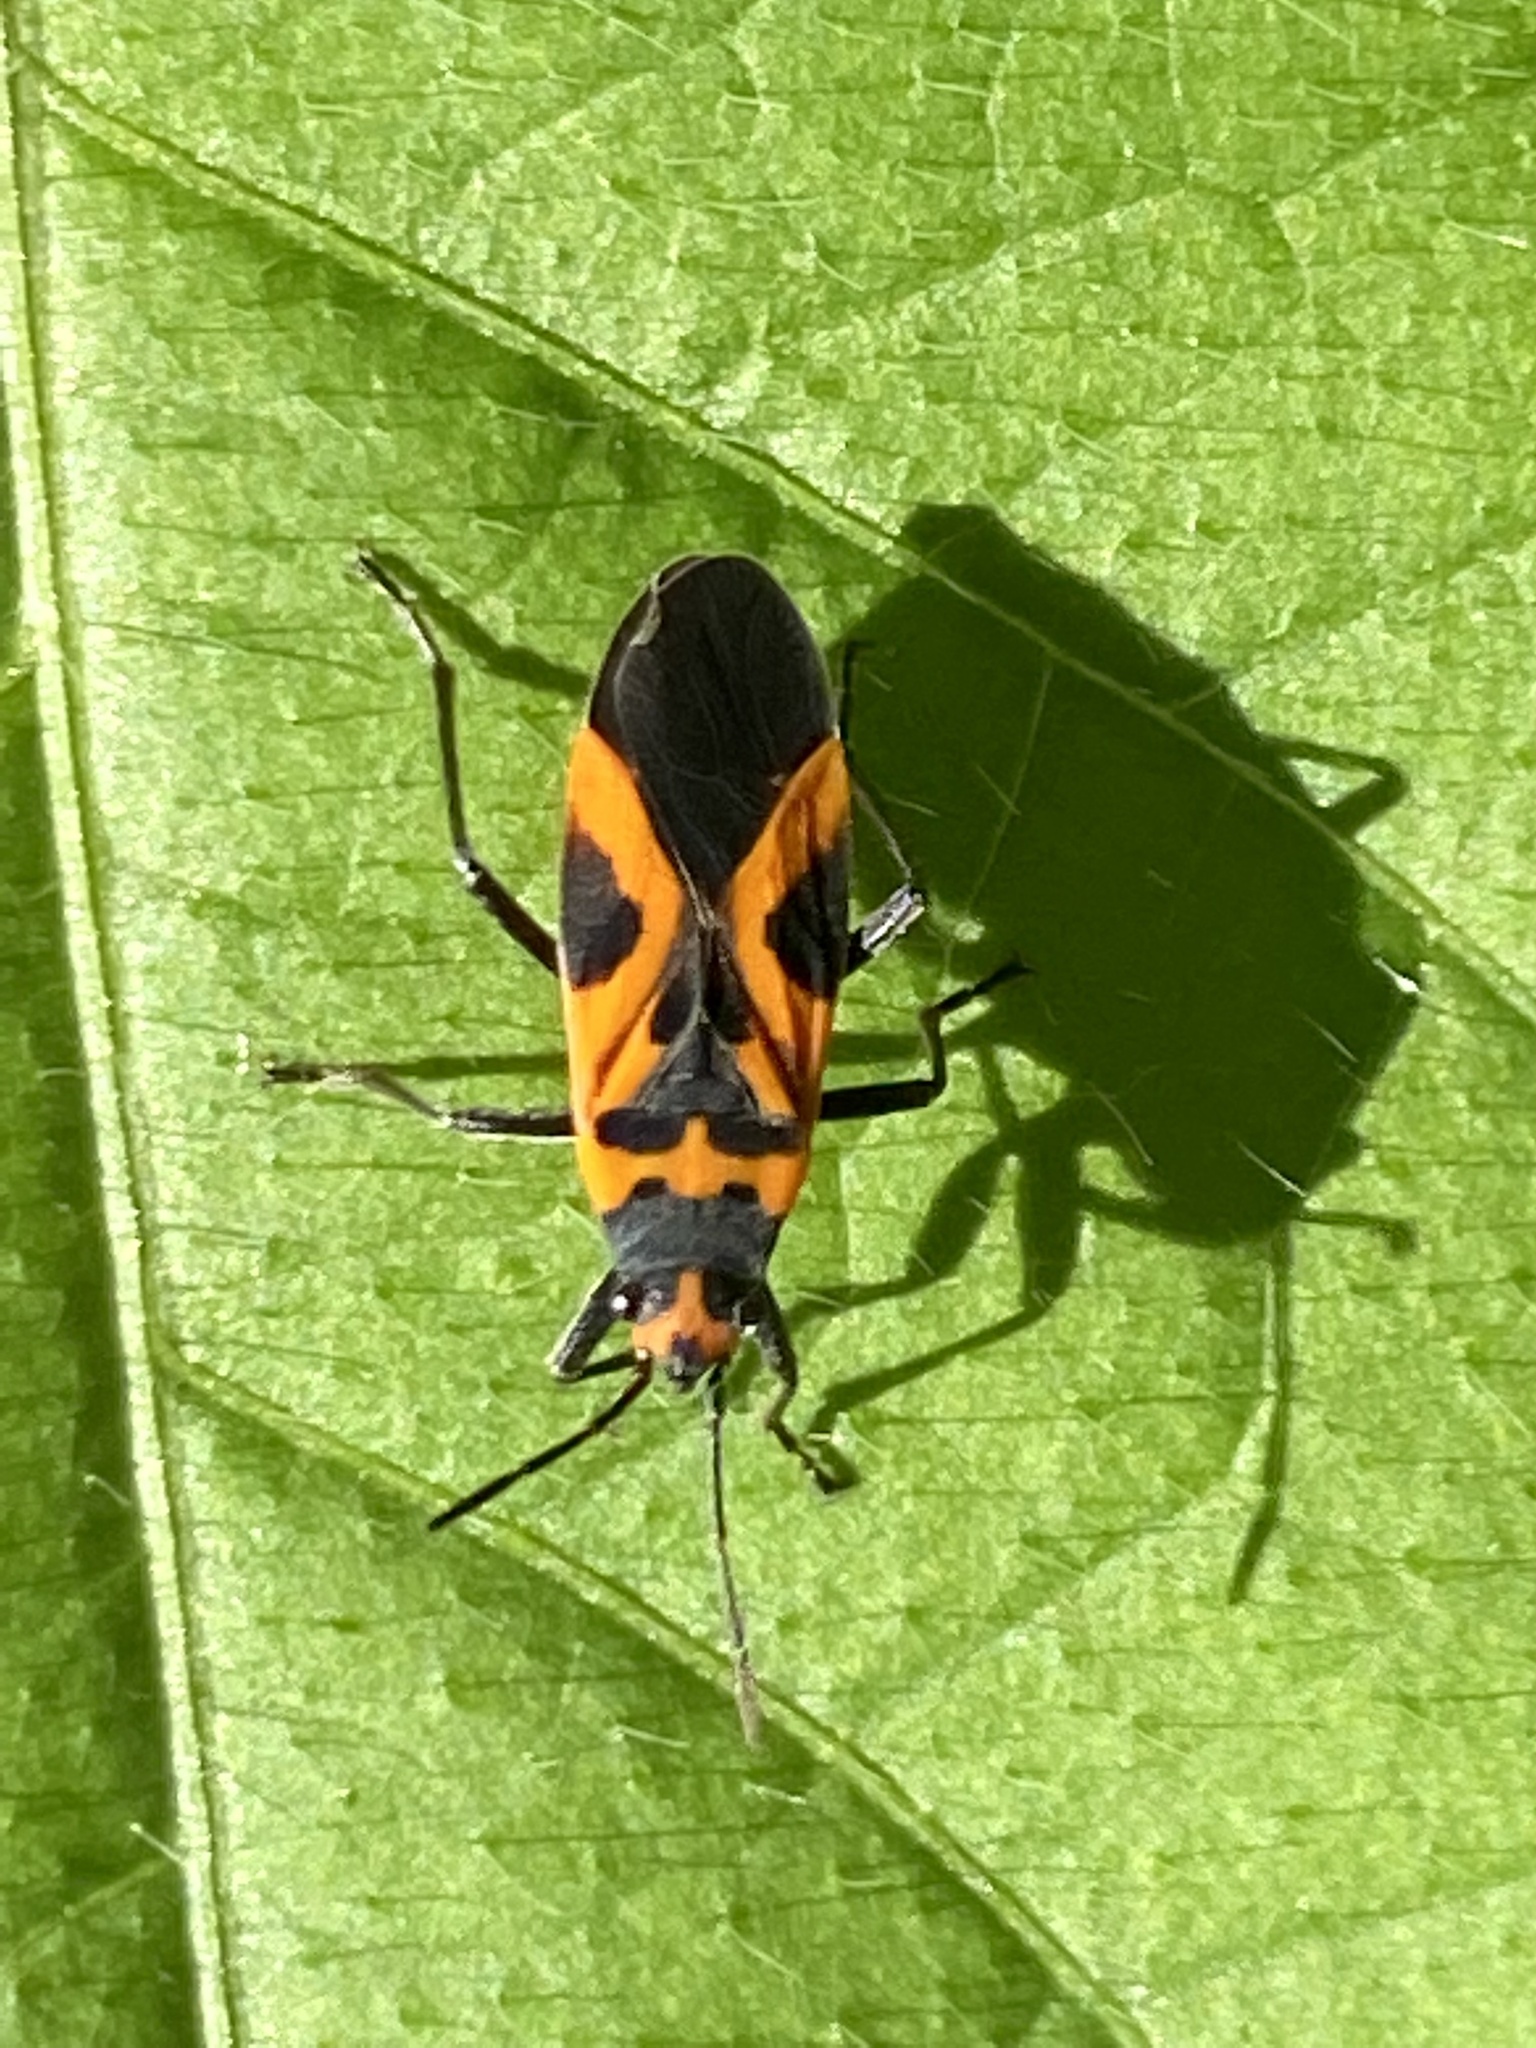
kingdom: Animalia
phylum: Arthropoda
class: Insecta
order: Hemiptera
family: Lygaeidae
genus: Lygaeus
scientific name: Lygaeus turcicus
